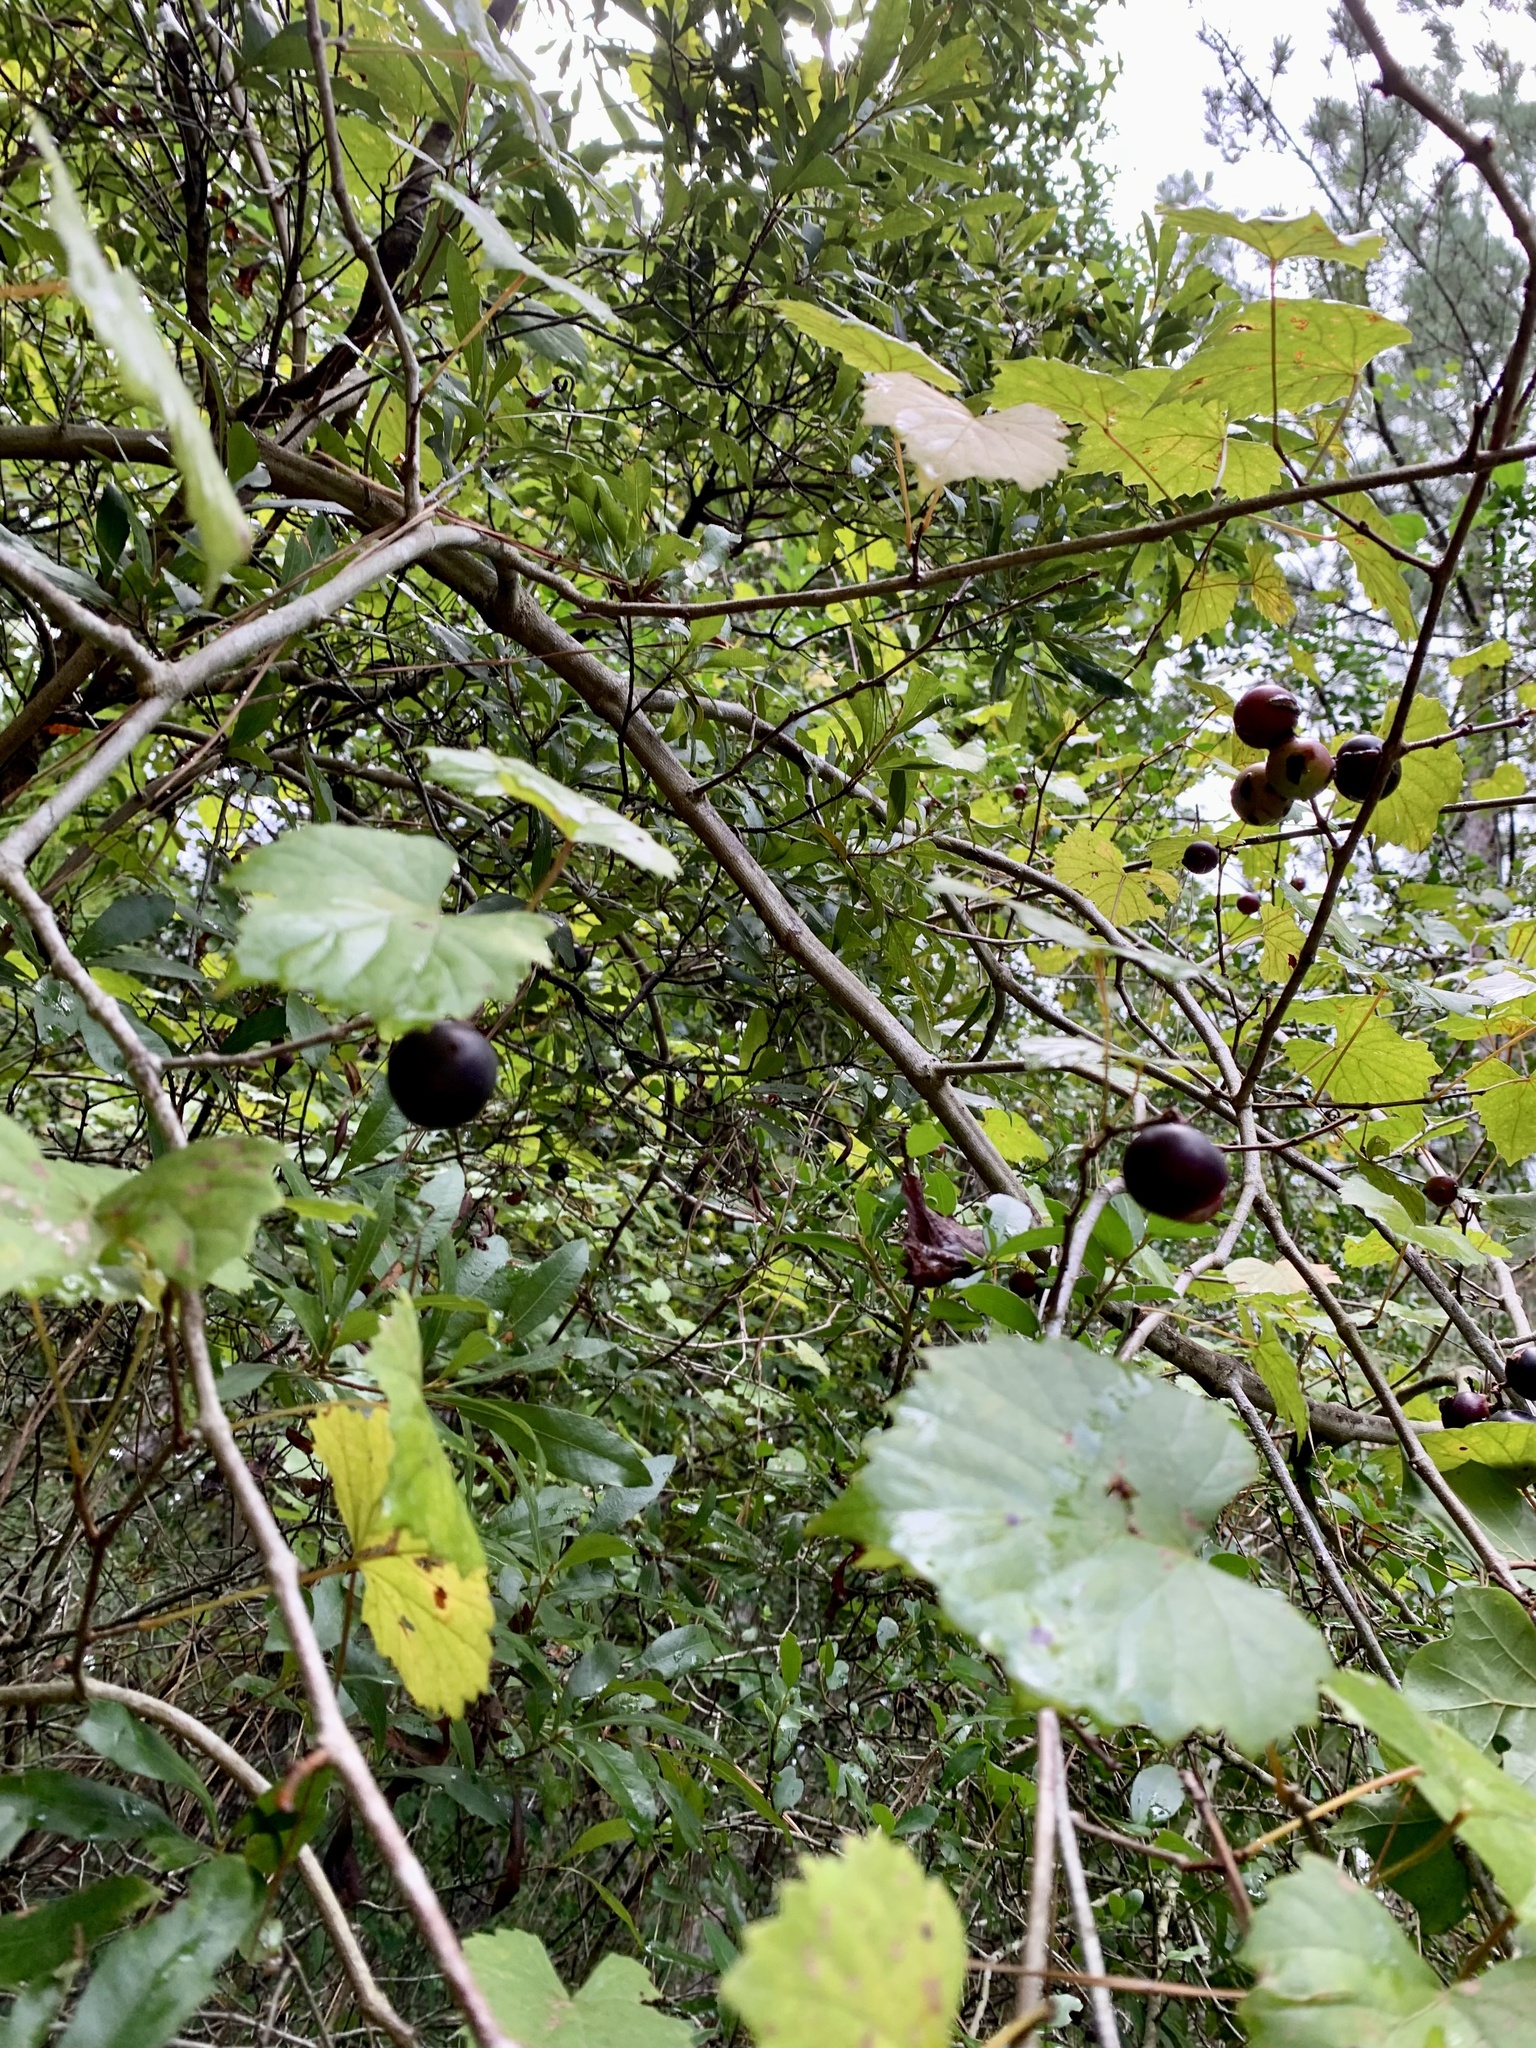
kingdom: Plantae
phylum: Tracheophyta
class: Magnoliopsida
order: Vitales
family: Vitaceae
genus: Vitis
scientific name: Vitis rotundifolia
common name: Muscadine grape
